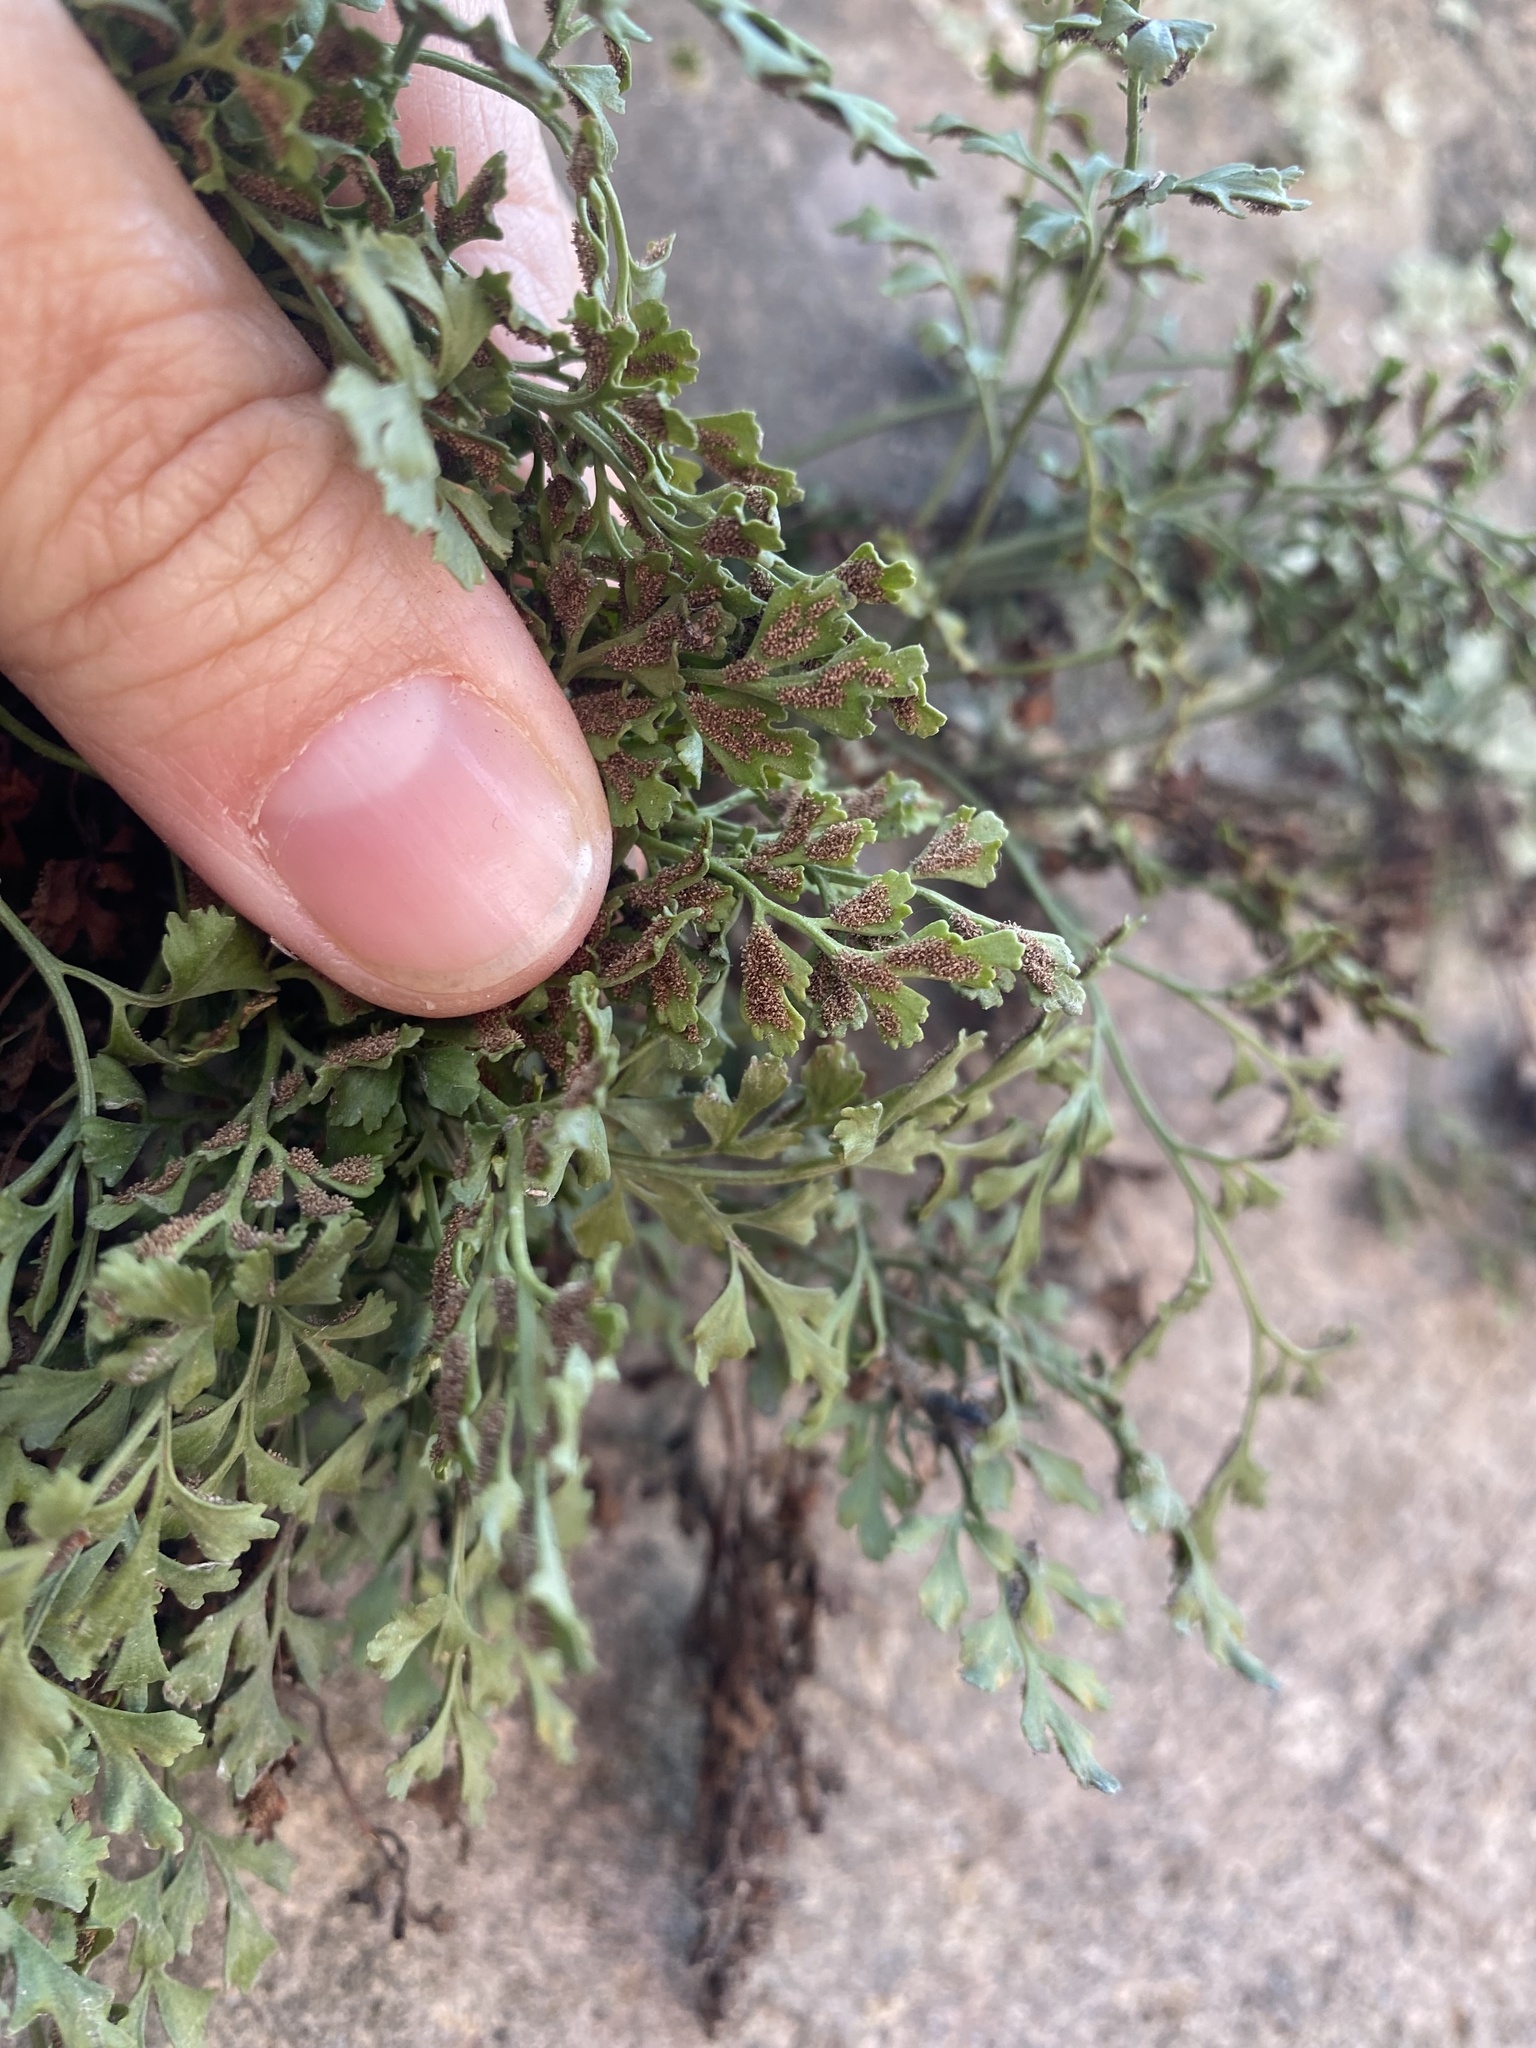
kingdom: Plantae
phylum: Tracheophyta
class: Polypodiopsida
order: Polypodiales
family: Aspleniaceae
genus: Asplenium
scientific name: Asplenium ruta-muraria
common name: Wall-rue
